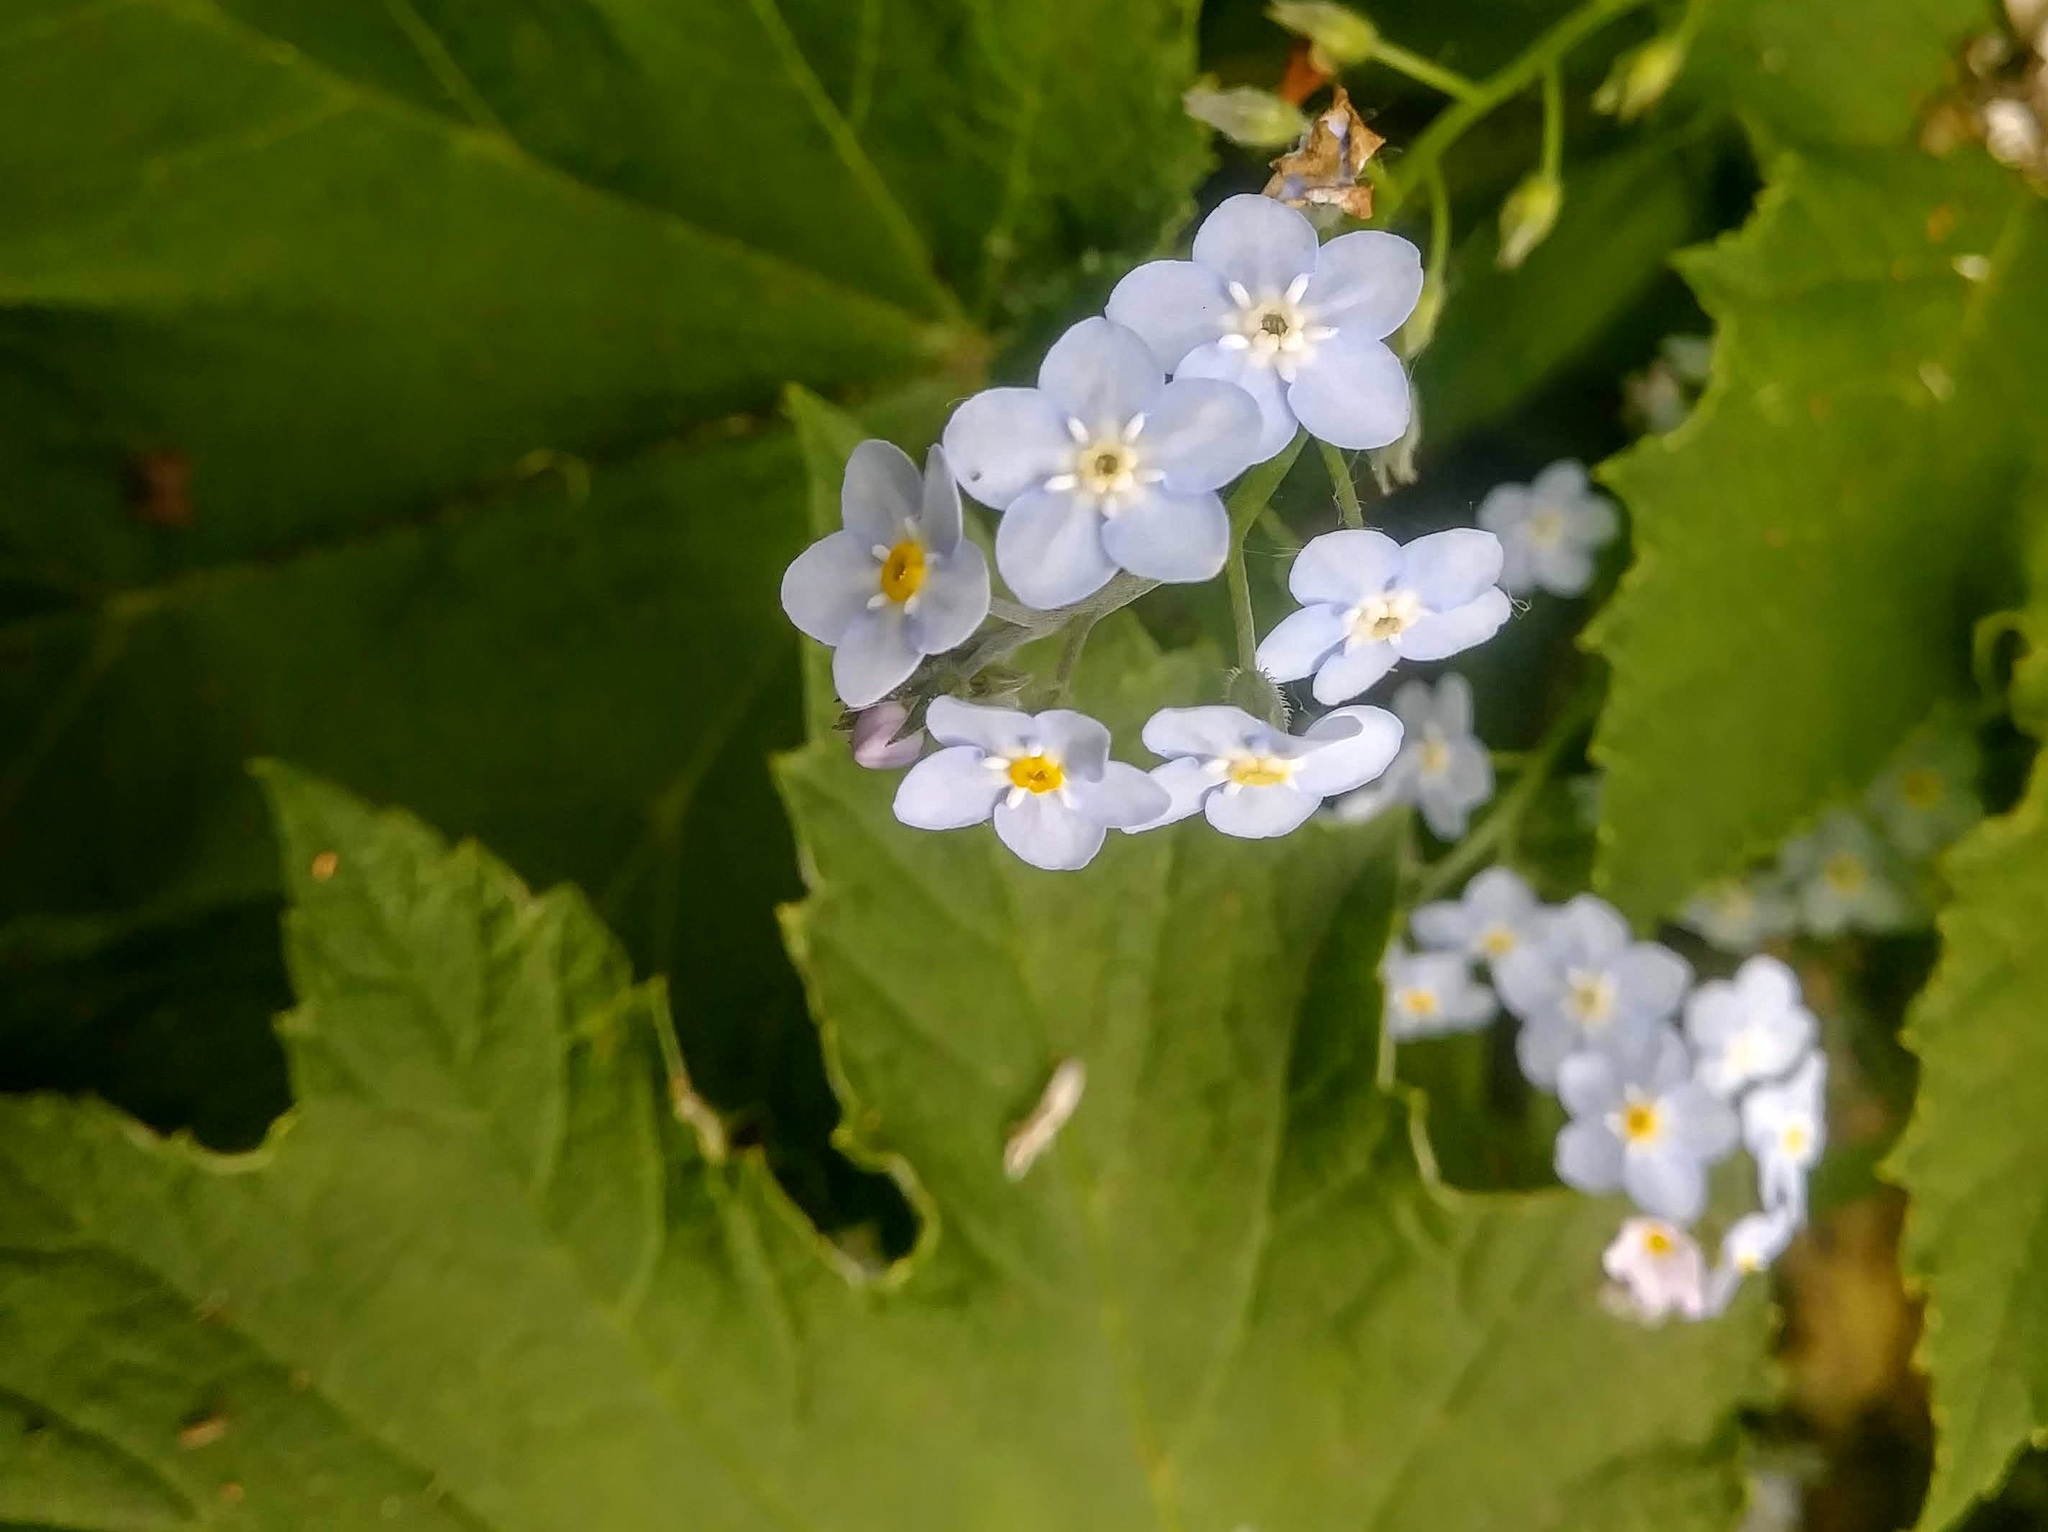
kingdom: Plantae
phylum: Tracheophyta
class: Magnoliopsida
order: Boraginales
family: Boraginaceae
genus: Myosotis
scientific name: Myosotis latifolia
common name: Broadleaf forget-me-not
